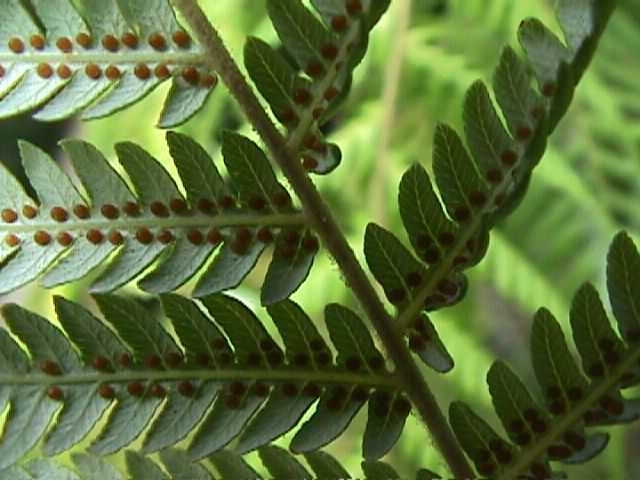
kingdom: Plantae
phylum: Tracheophyta
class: Polypodiopsida
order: Cyatheales
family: Cyatheaceae
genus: Alsophila
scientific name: Alsophila dealbata
